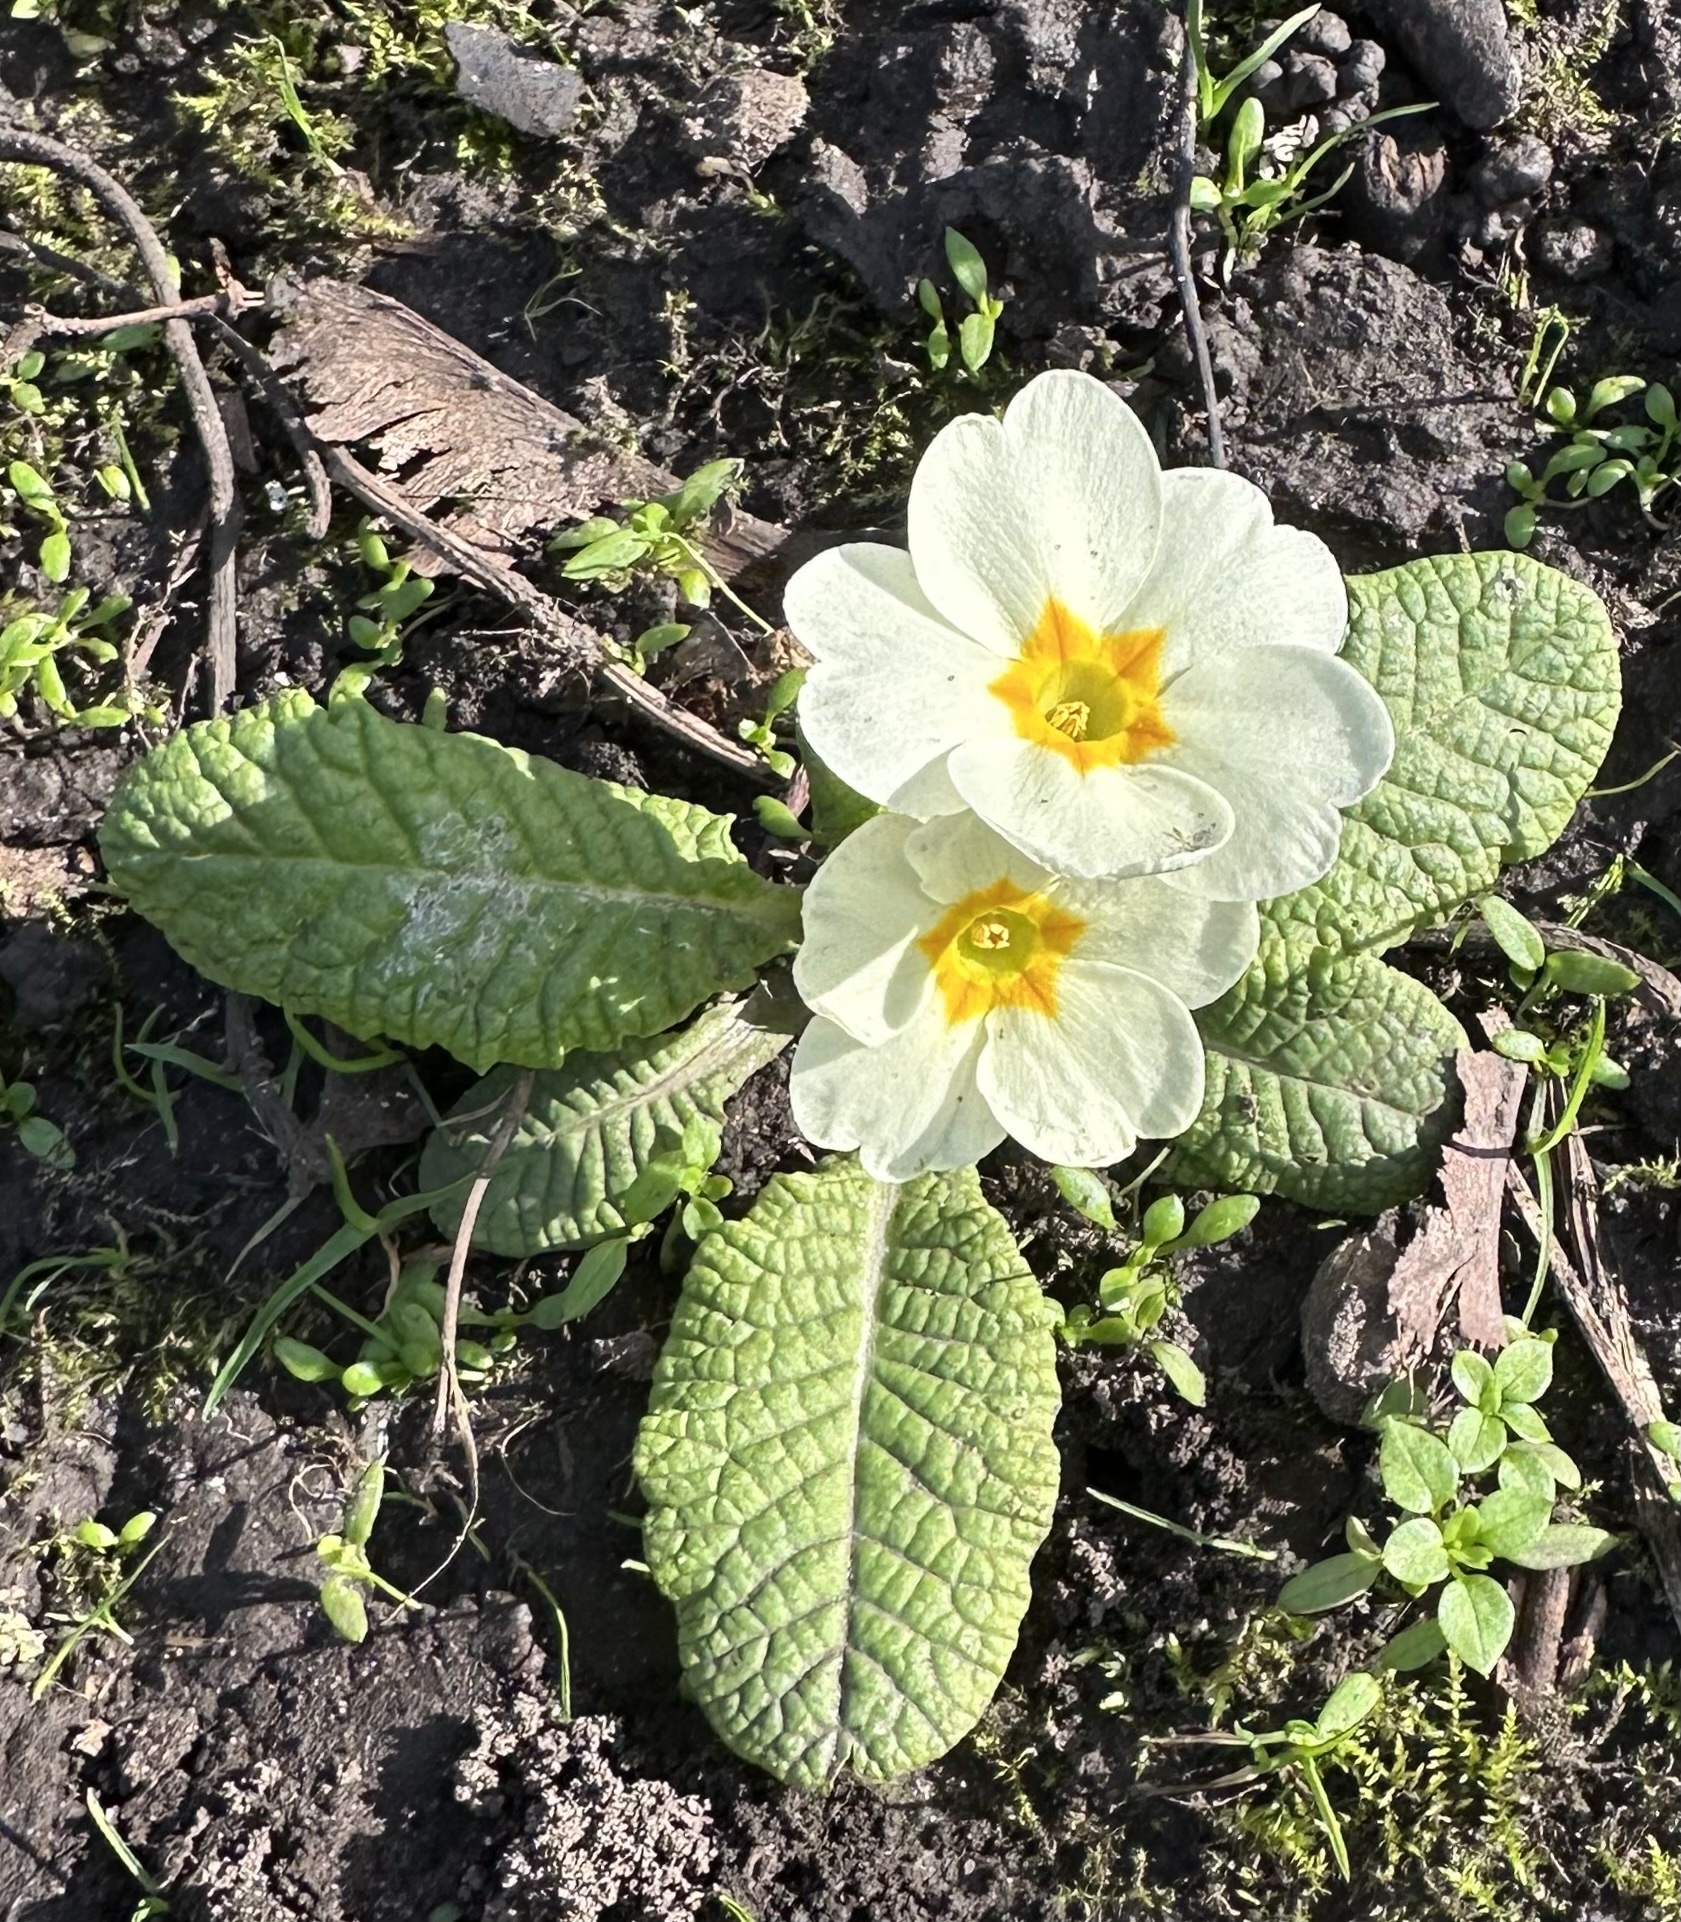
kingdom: Plantae
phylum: Tracheophyta
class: Magnoliopsida
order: Ericales
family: Primulaceae
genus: Primula
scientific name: Primula vulgaris
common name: Primrose
